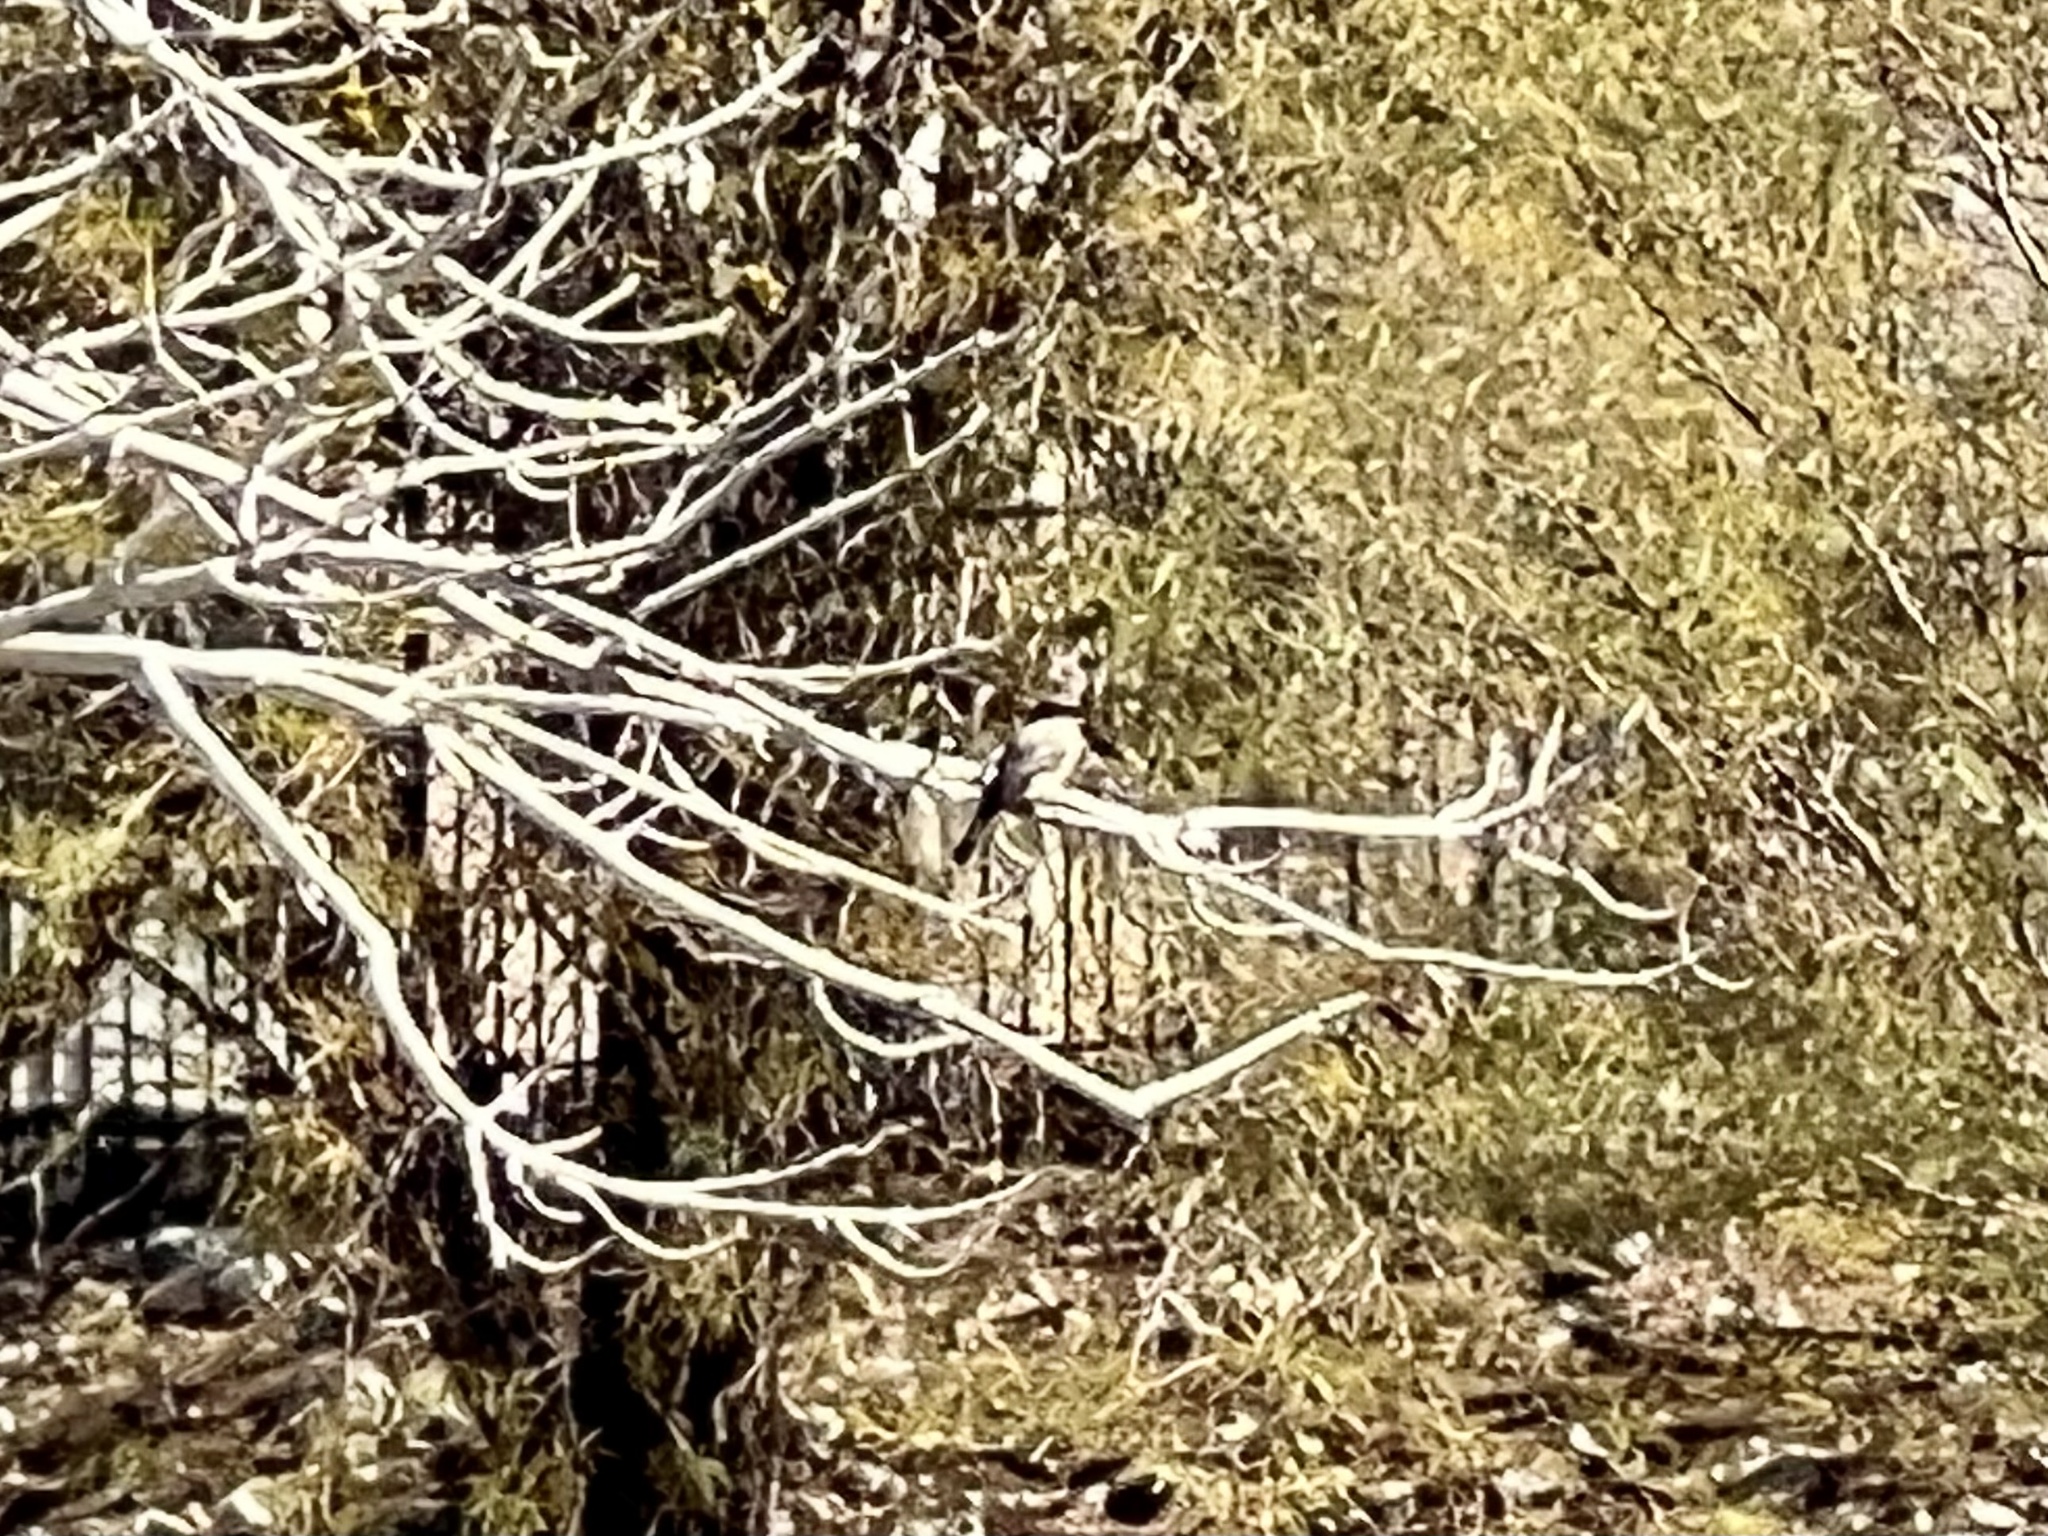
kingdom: Animalia
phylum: Chordata
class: Aves
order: Passeriformes
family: Tyrannidae
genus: Sayornis
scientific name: Sayornis saya
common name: Say's phoebe
